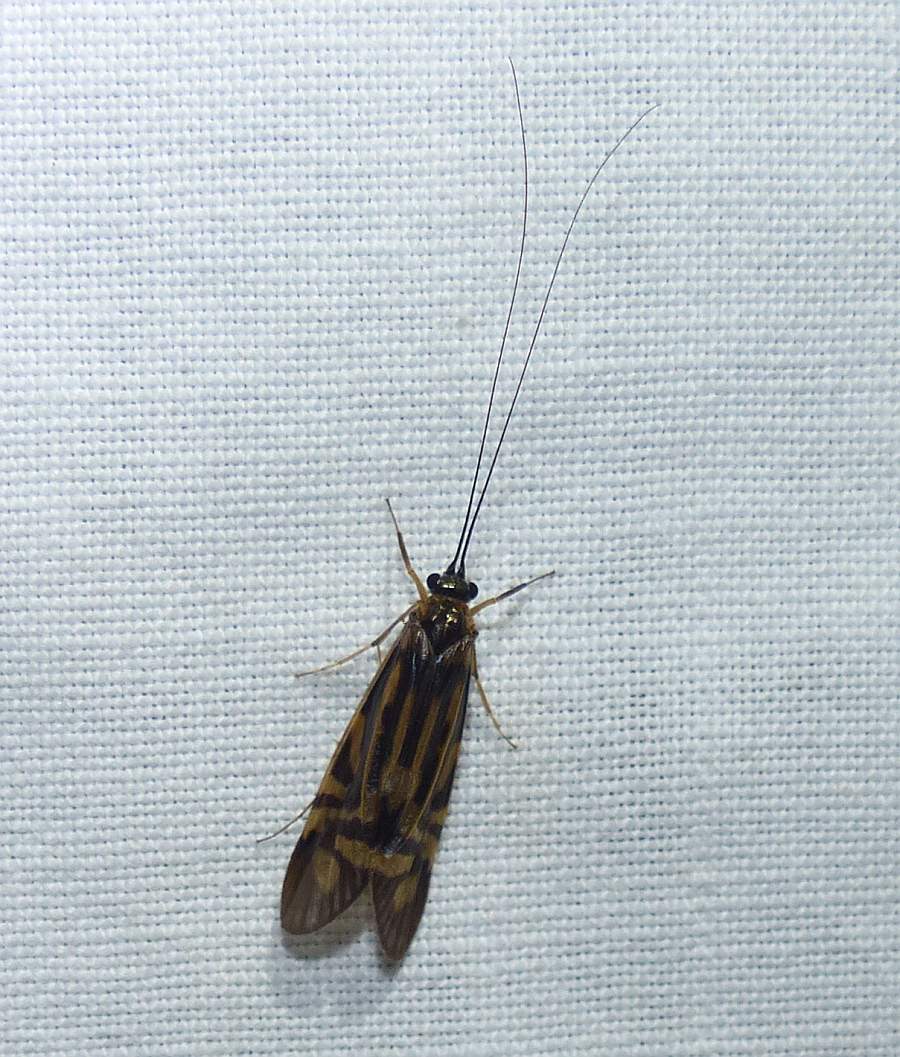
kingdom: Animalia
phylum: Arthropoda
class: Insecta
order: Trichoptera
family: Hydropsychidae
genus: Macrostemum
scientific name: Macrostemum zebratum
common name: Zebra caddisfly
